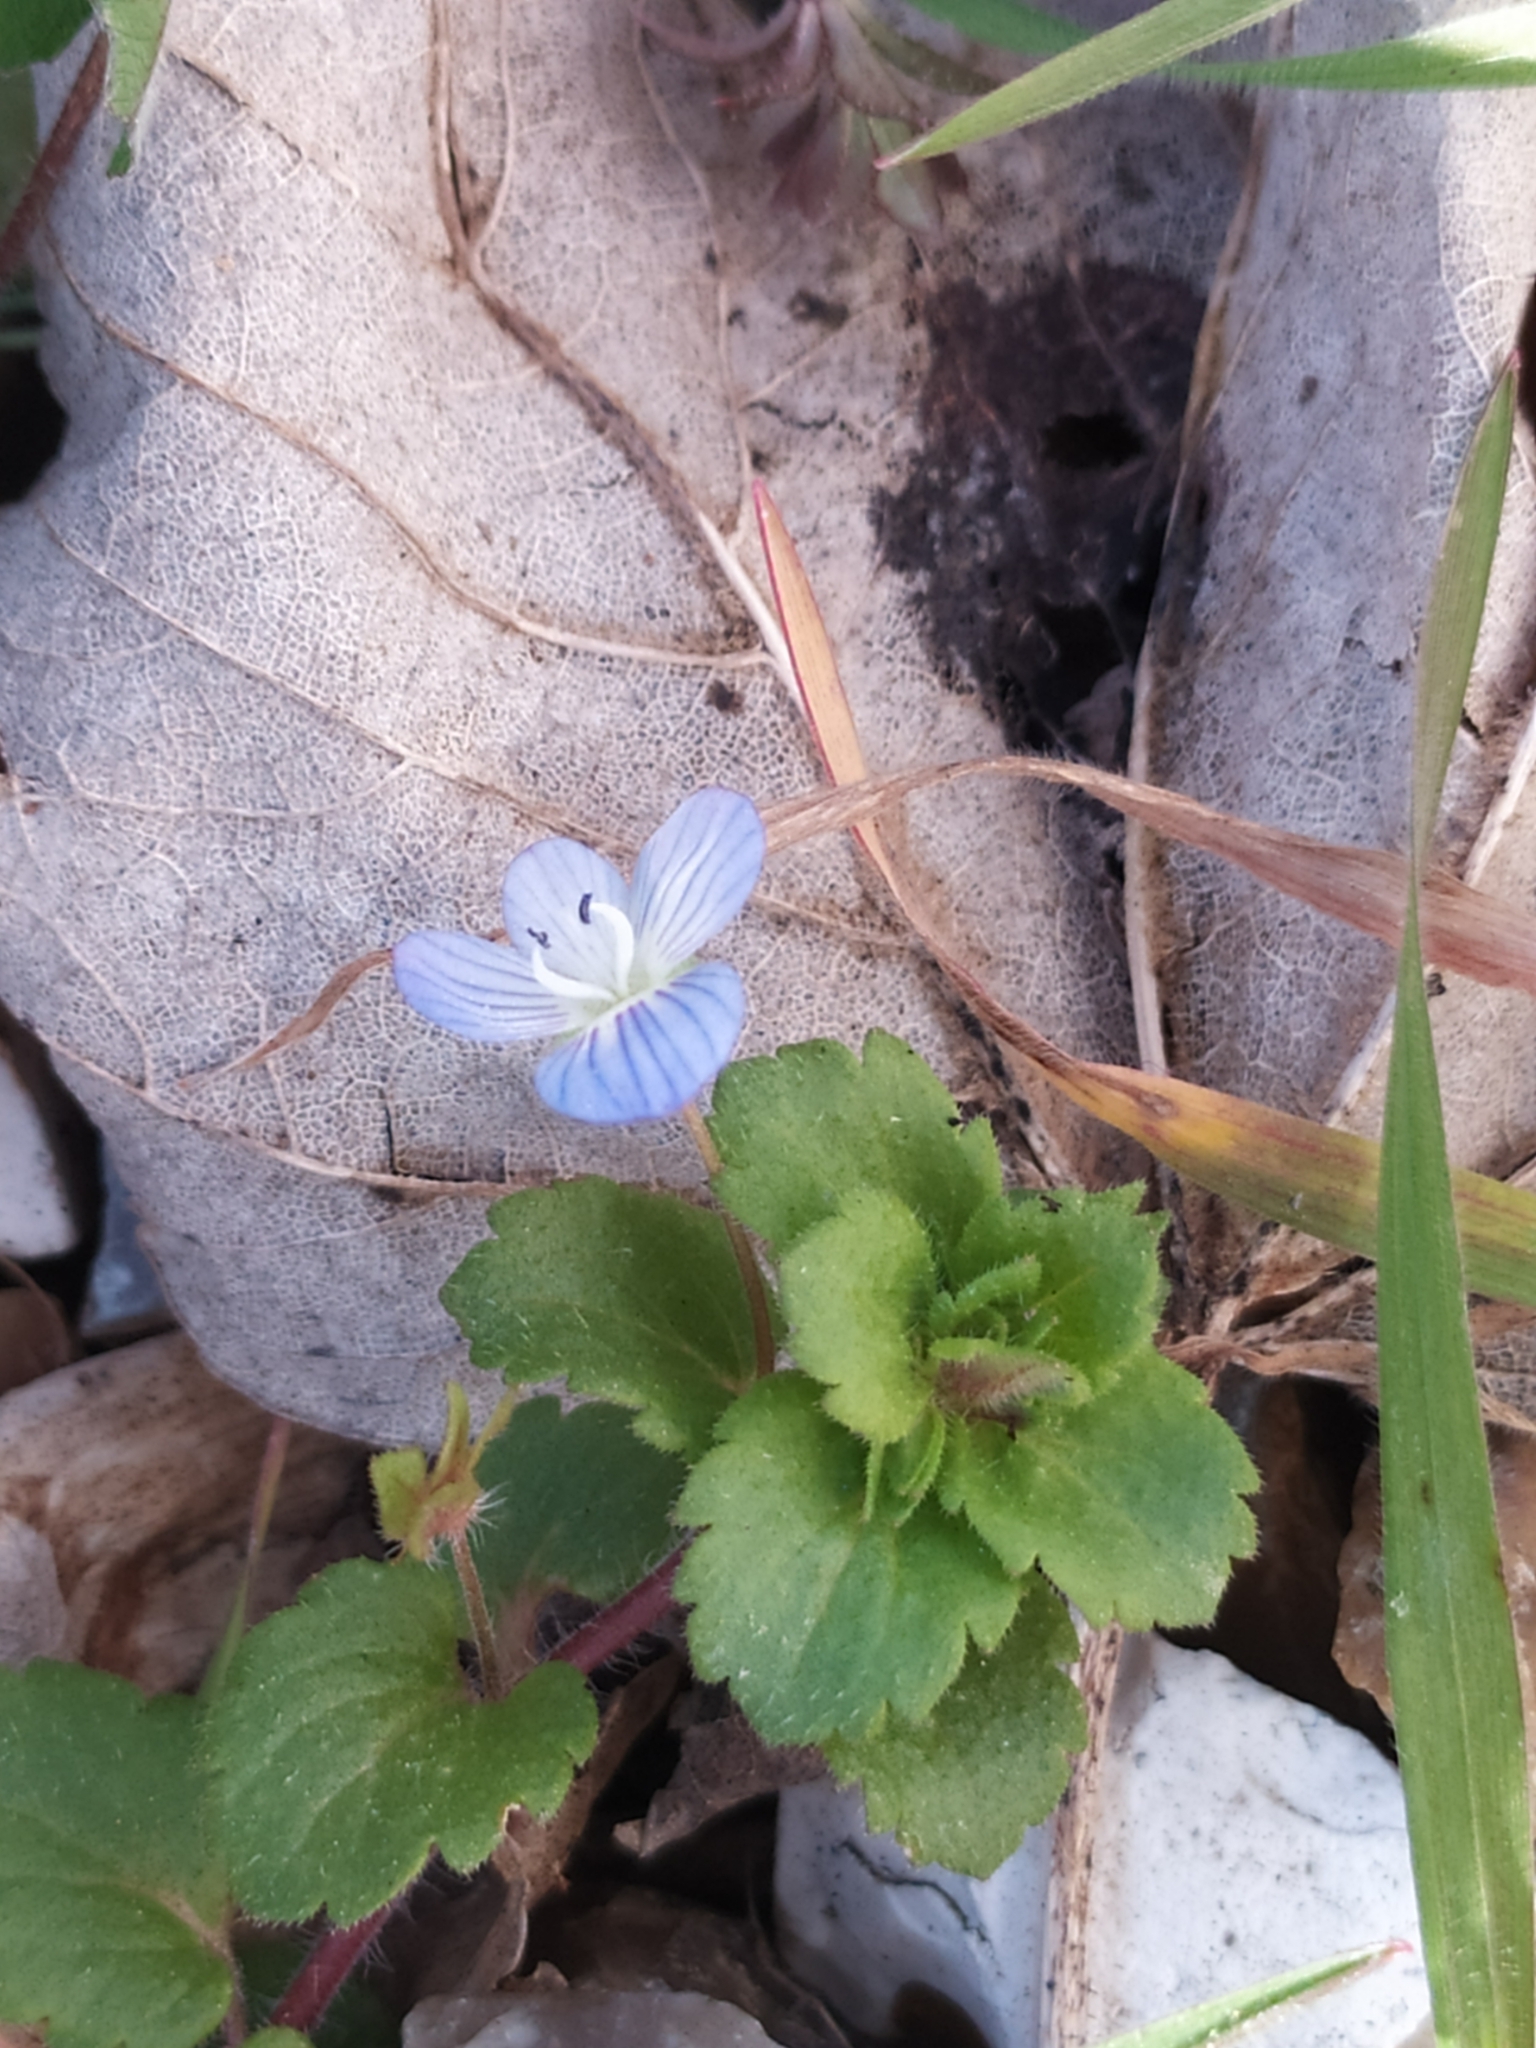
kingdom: Plantae
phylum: Tracheophyta
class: Magnoliopsida
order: Lamiales
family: Plantaginaceae
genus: Veronica
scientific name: Veronica persica
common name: Common field-speedwell
